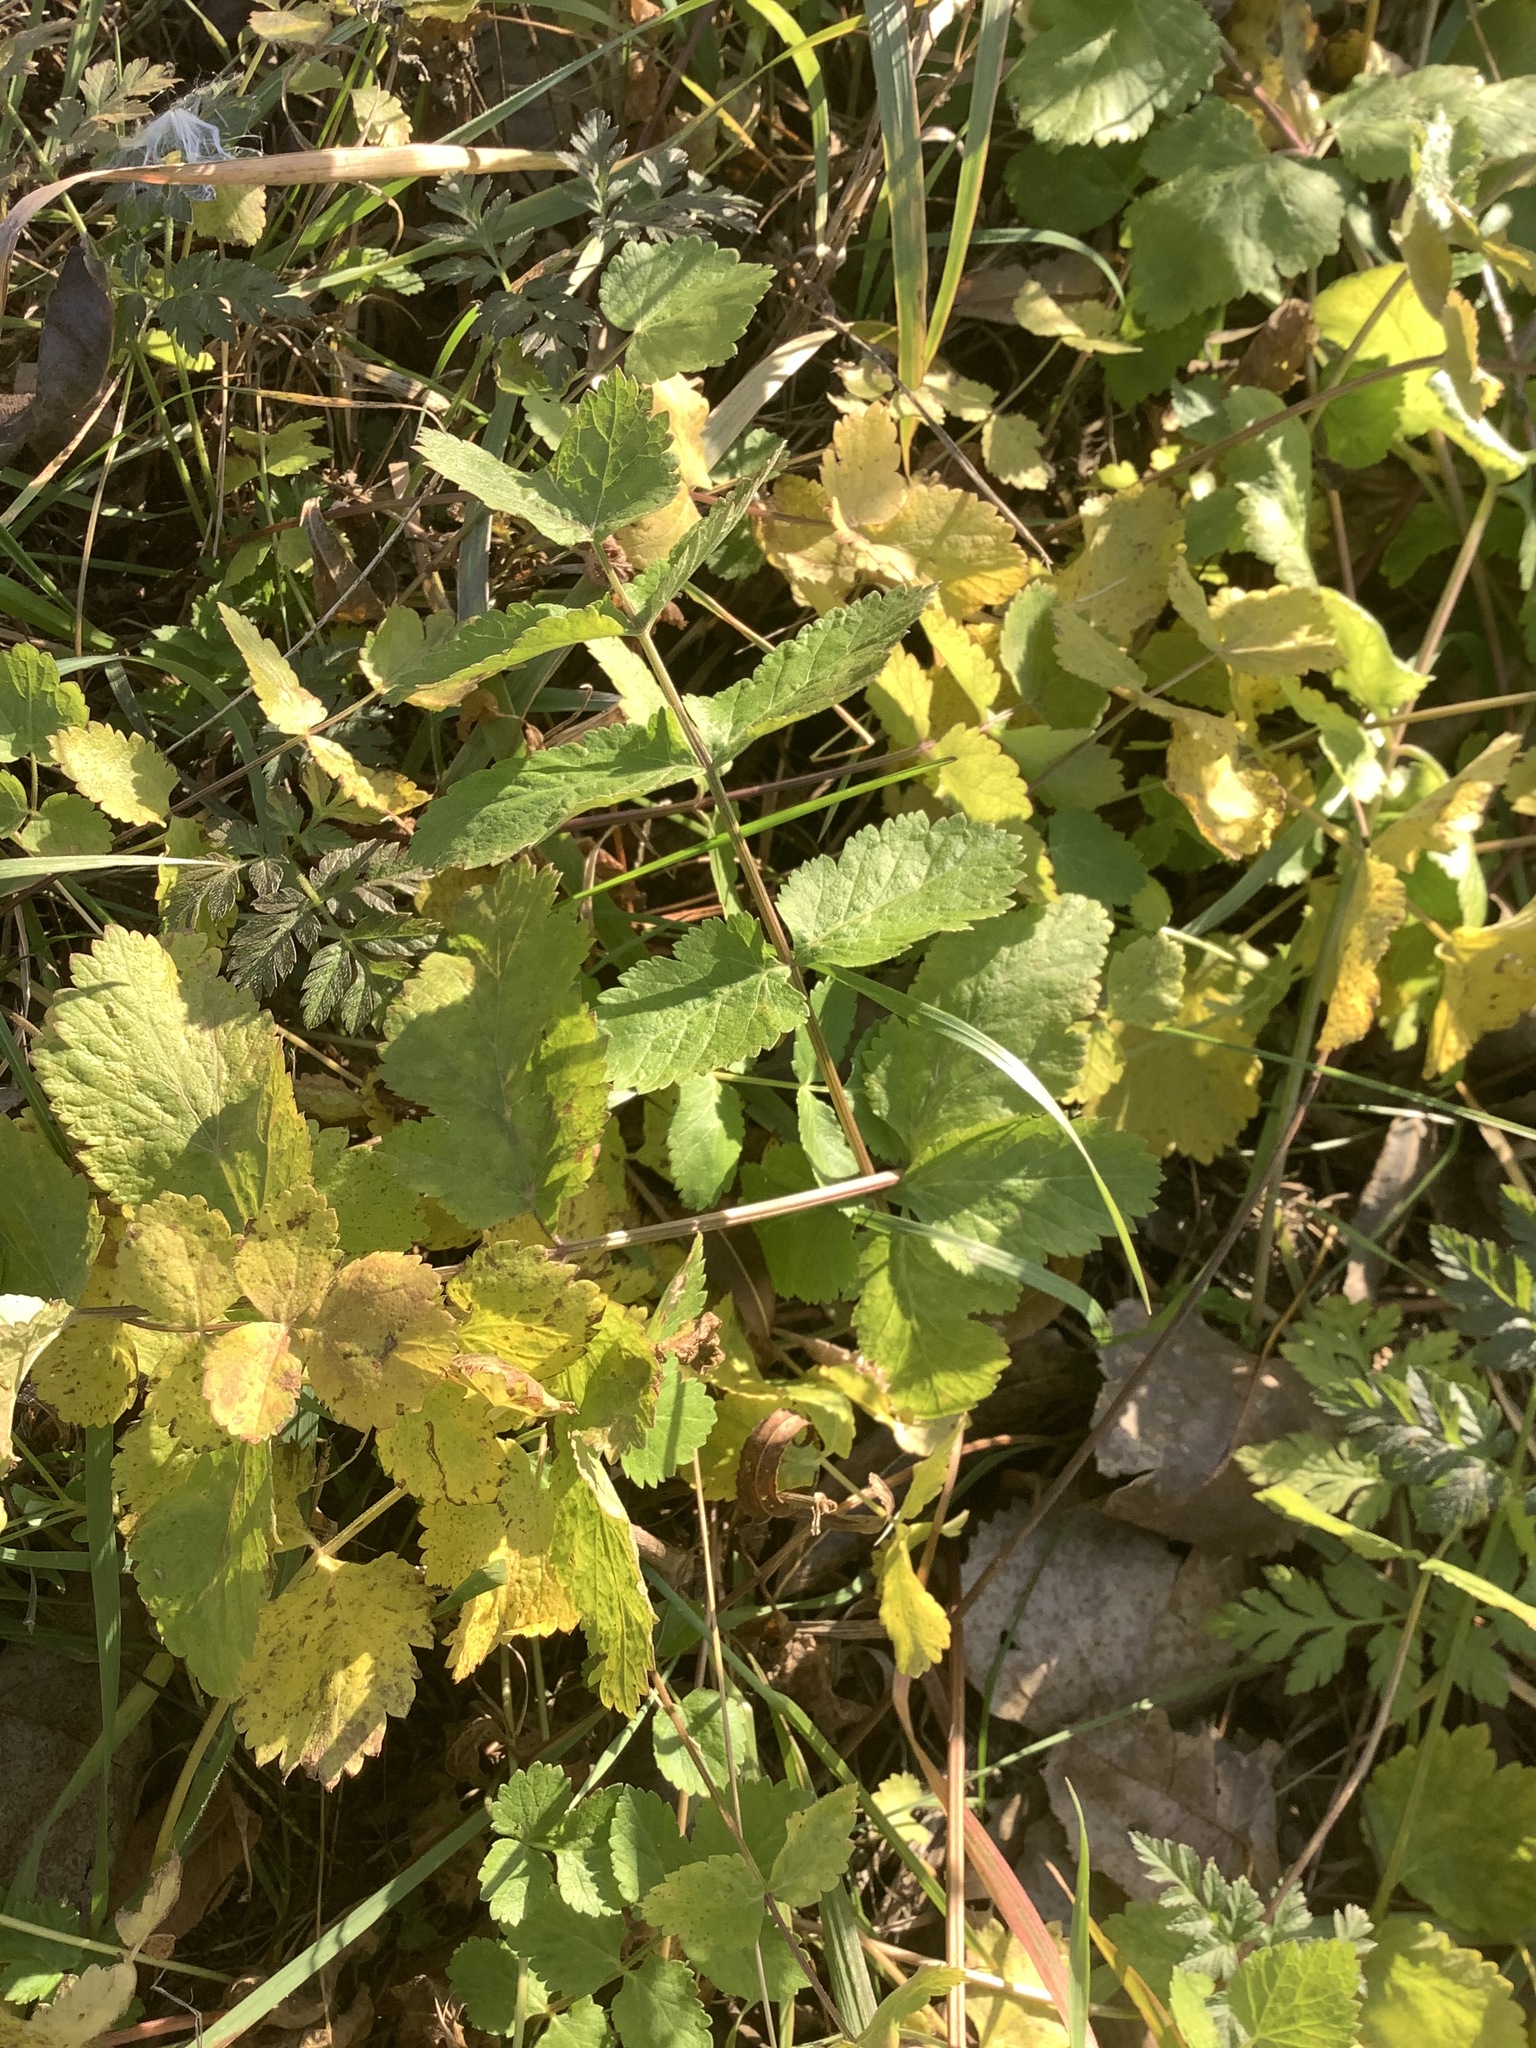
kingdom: Plantae
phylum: Tracheophyta
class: Magnoliopsida
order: Apiales
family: Apiaceae
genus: Pastinaca
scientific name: Pastinaca sativa
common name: Wild parsnip
